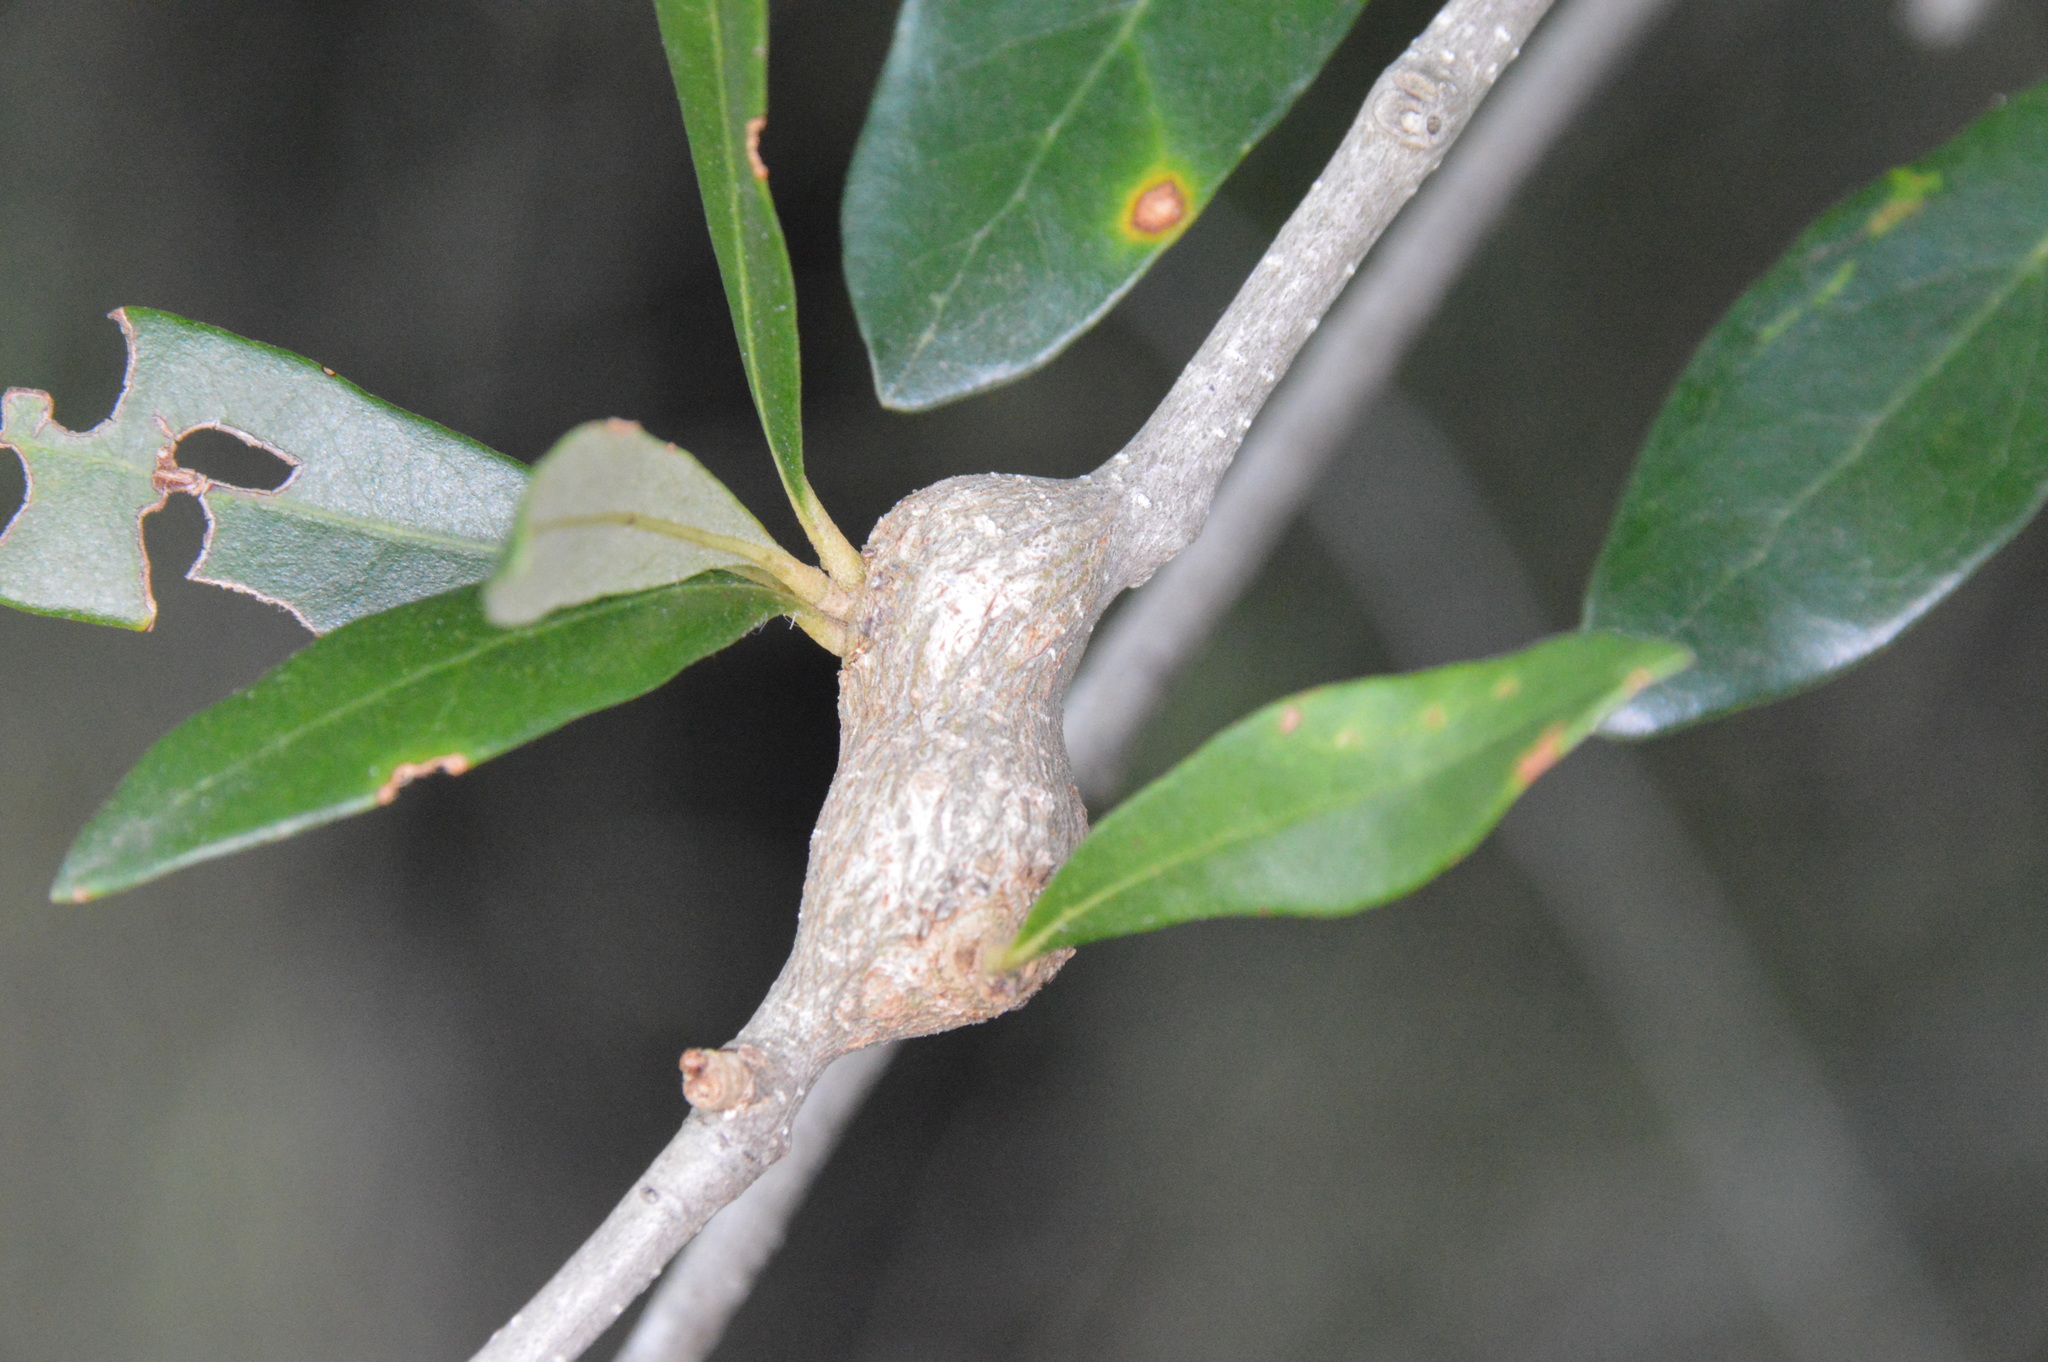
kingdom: Animalia
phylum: Arthropoda
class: Insecta
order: Hymenoptera
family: Cynipidae
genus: Callirhytis
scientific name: Callirhytis
